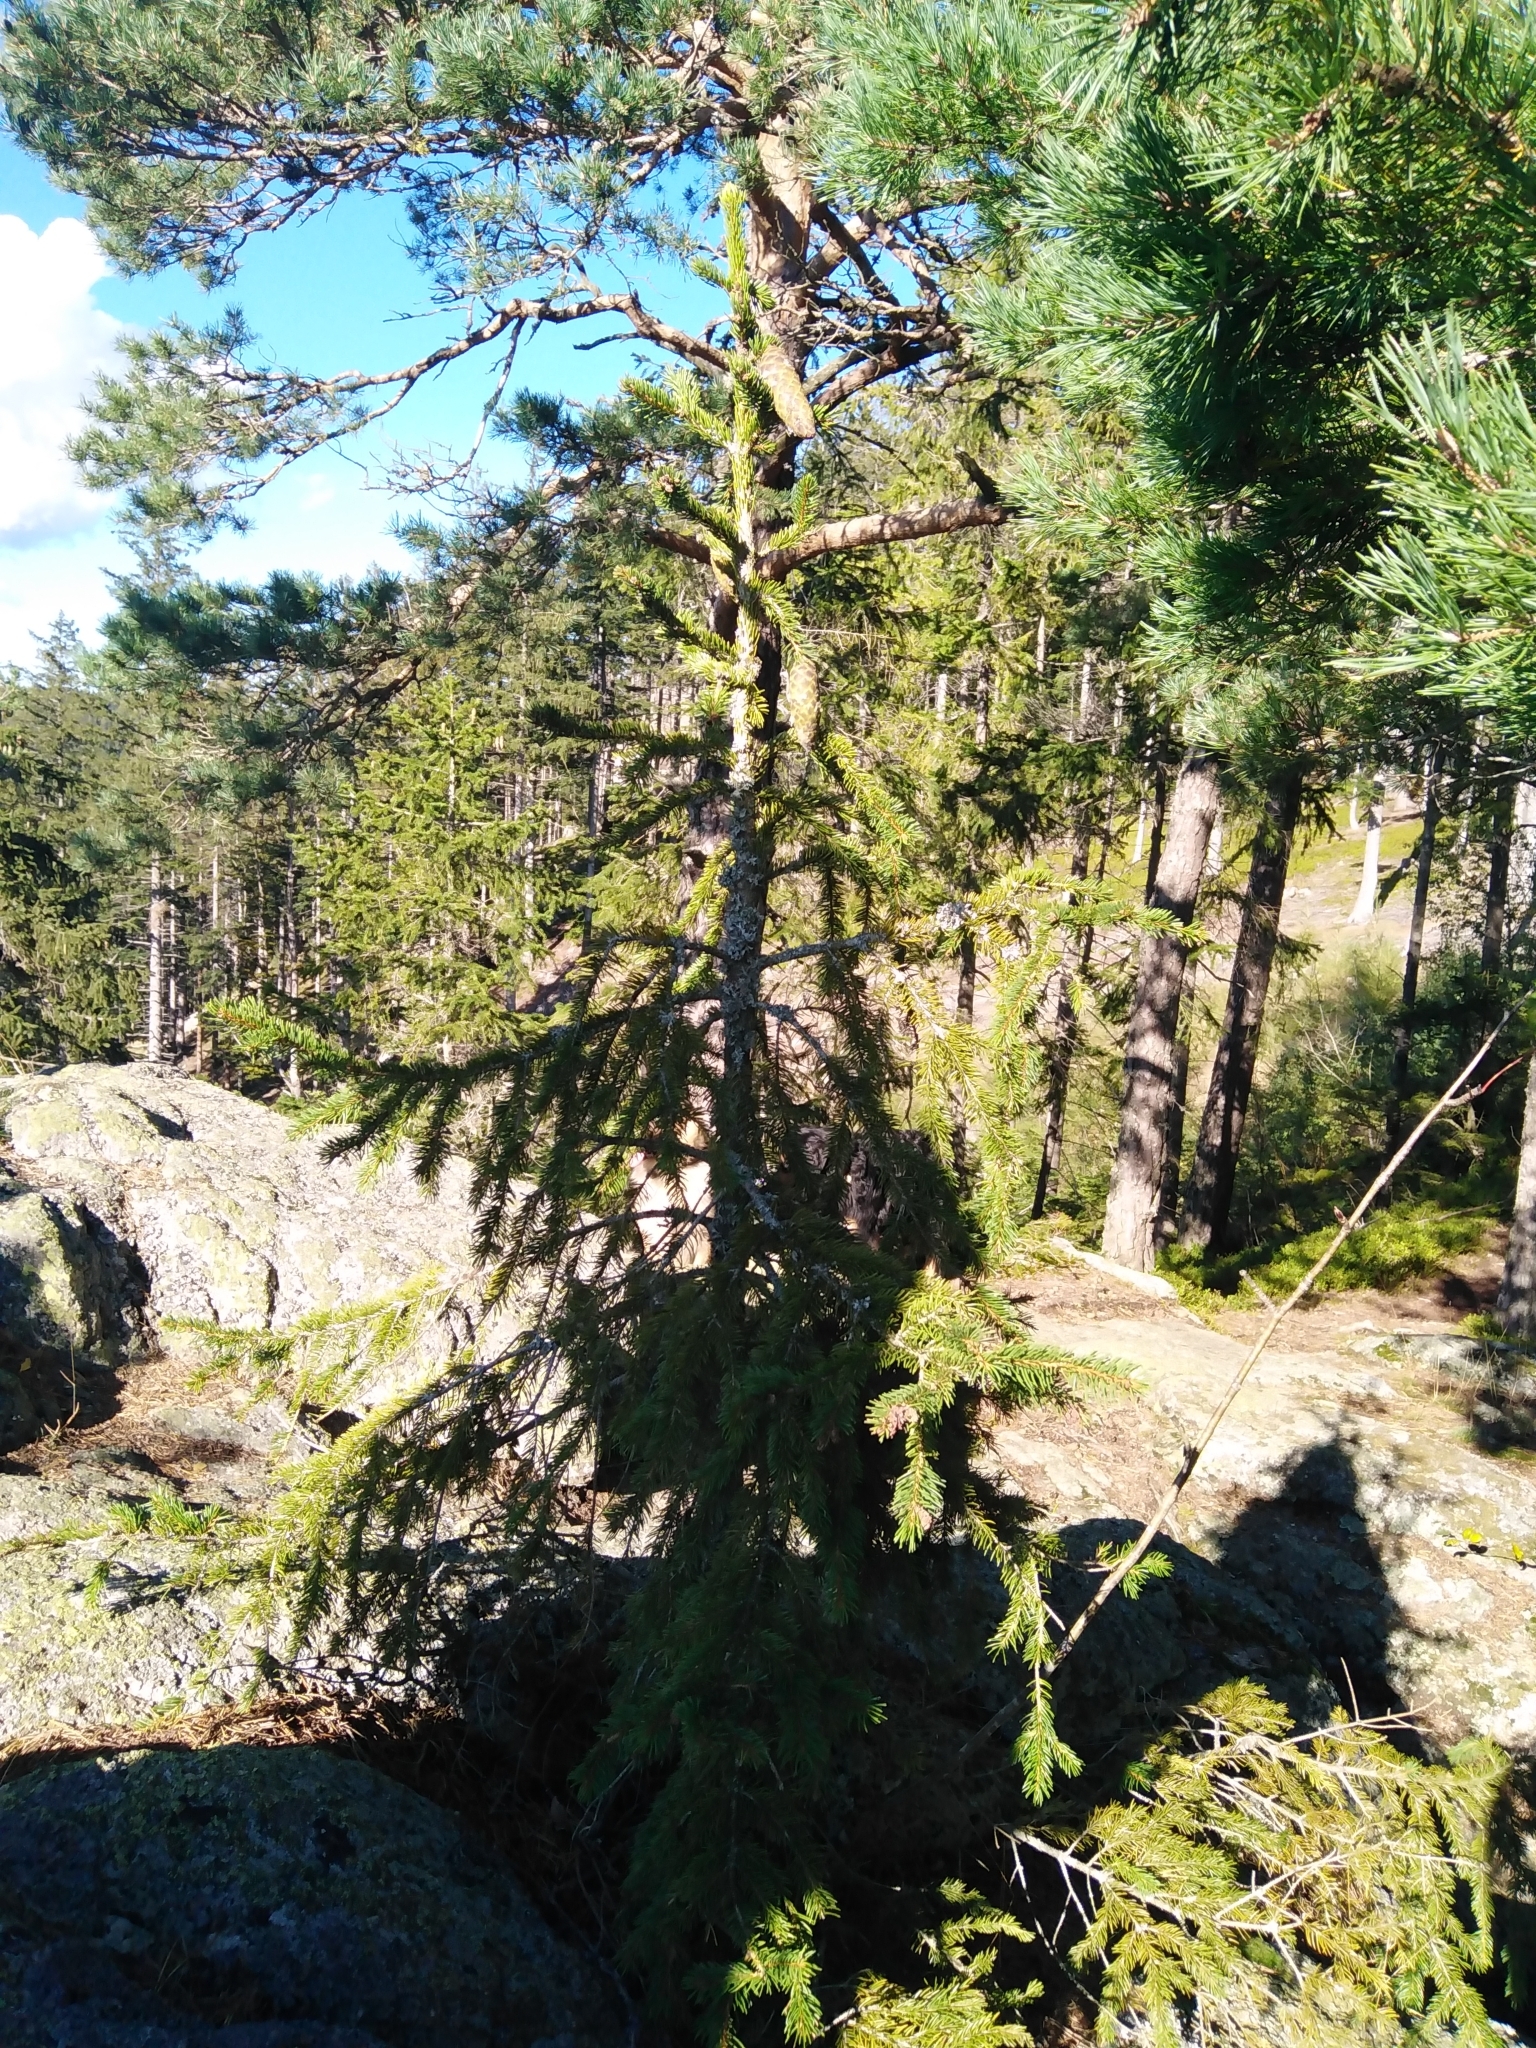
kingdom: Plantae
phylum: Tracheophyta
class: Pinopsida
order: Pinales
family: Pinaceae
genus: Picea
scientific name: Picea abies
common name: Norway spruce
